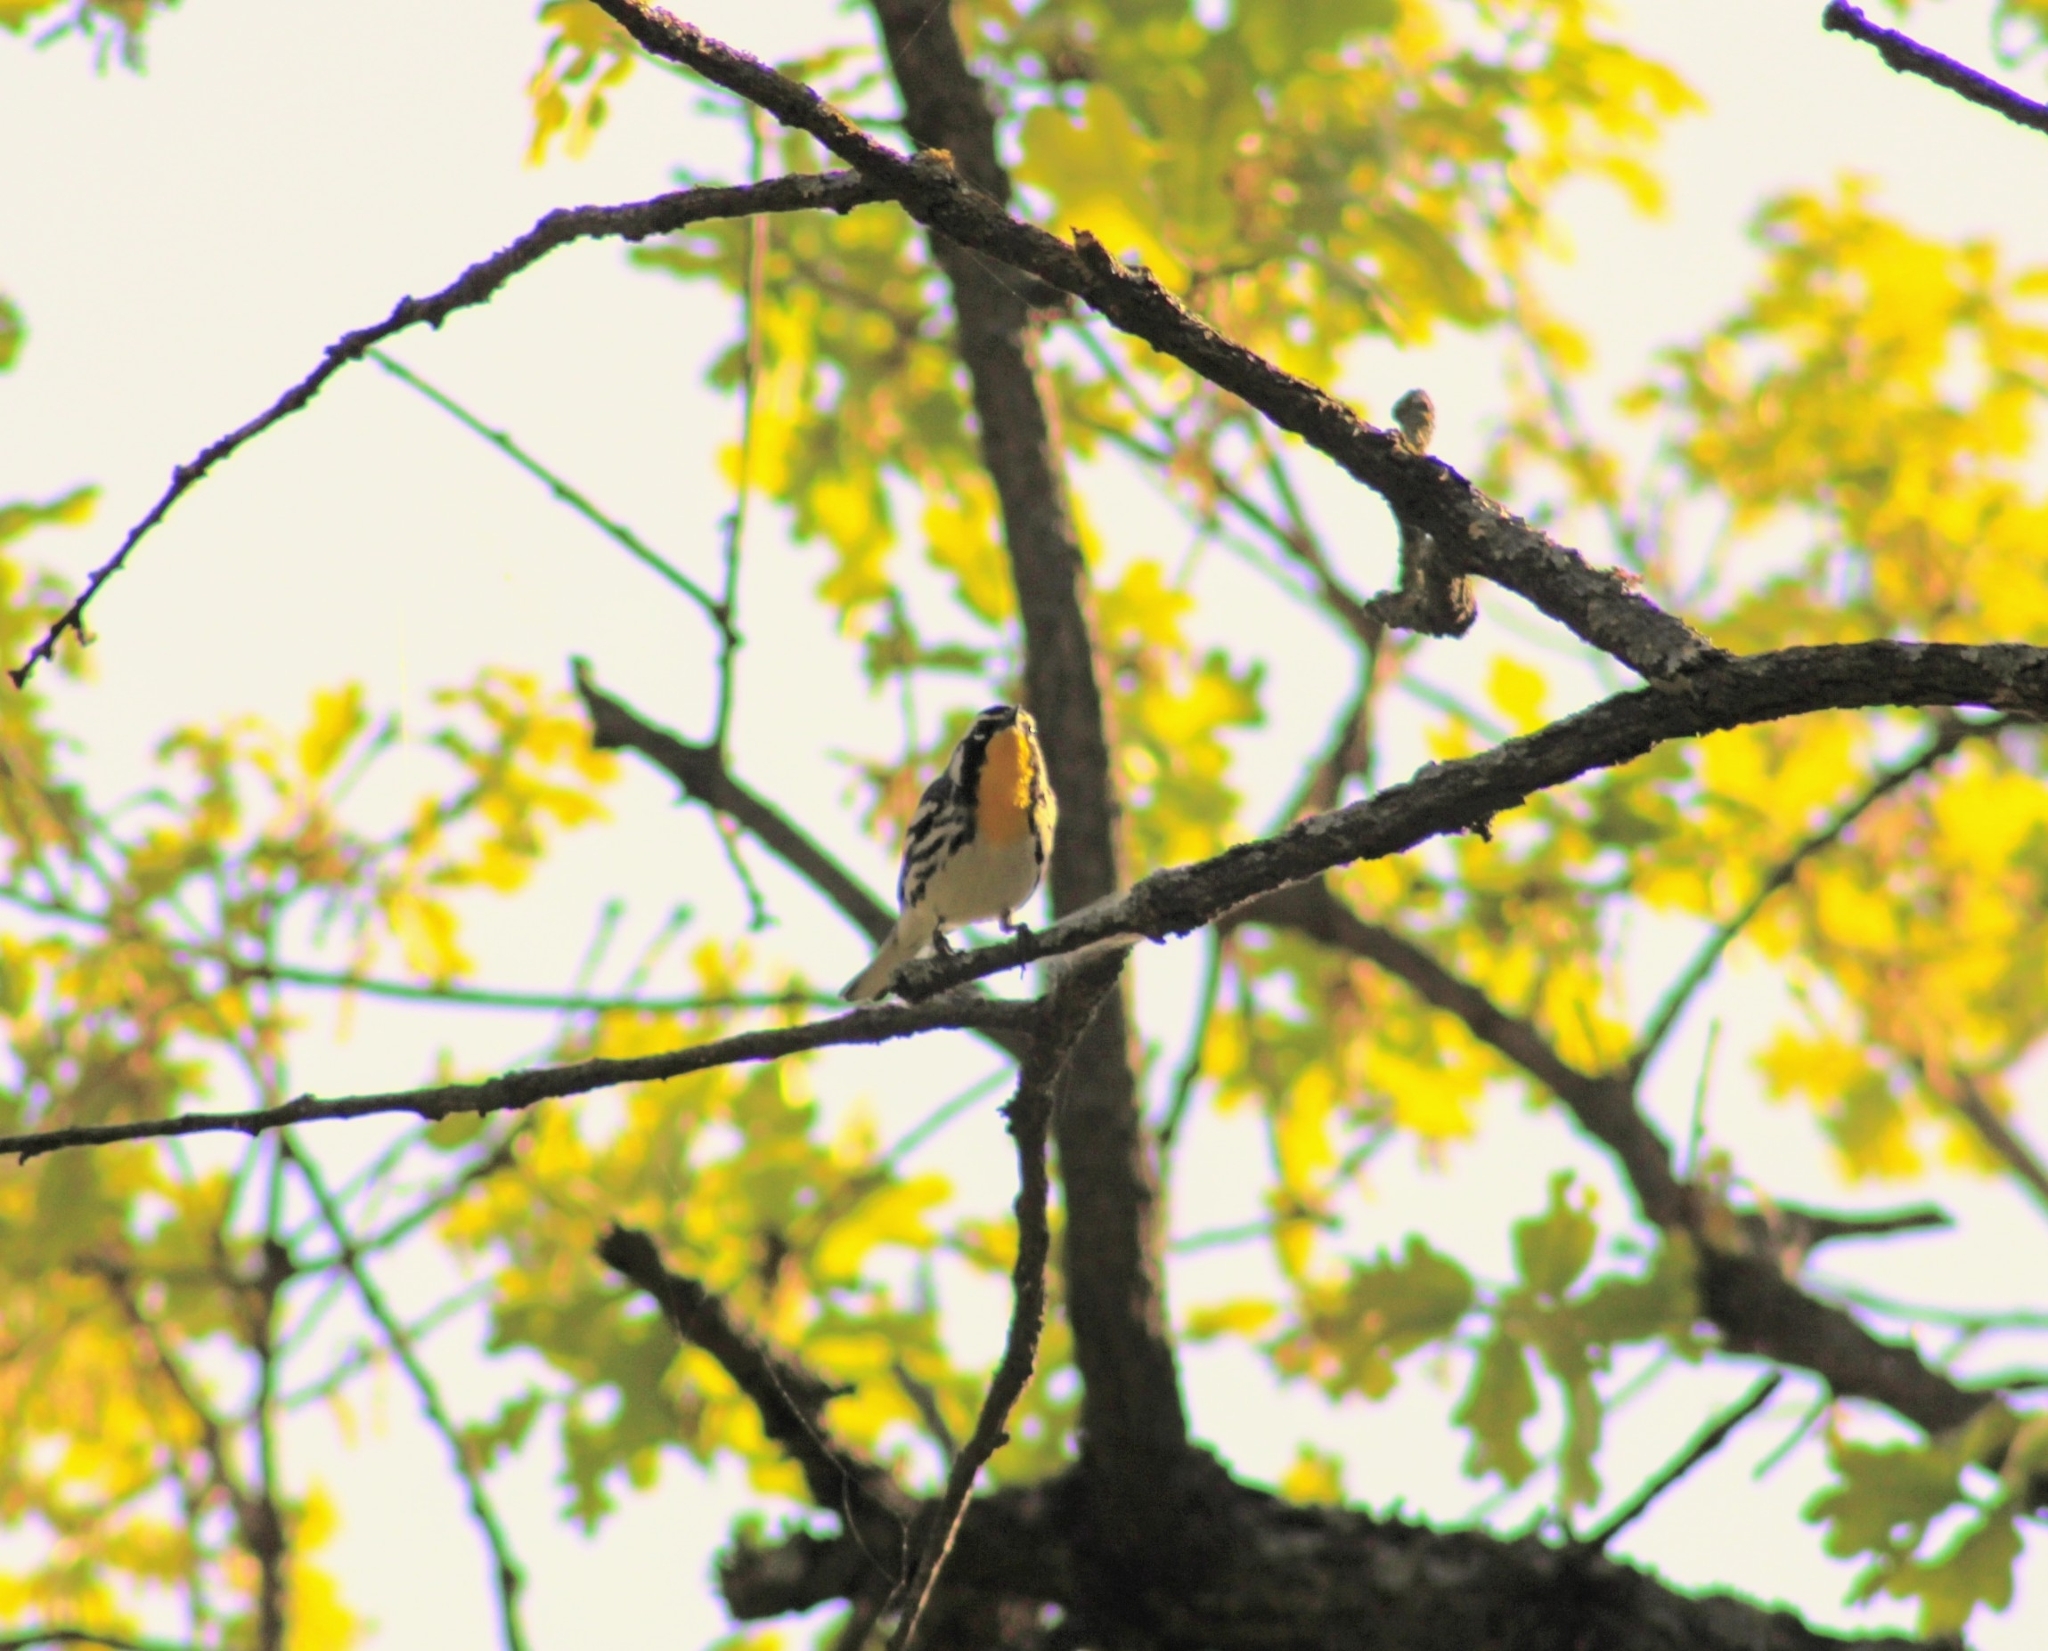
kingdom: Animalia
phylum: Chordata
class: Aves
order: Passeriformes
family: Parulidae
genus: Setophaga
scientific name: Setophaga dominica
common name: Yellow-throated warbler
